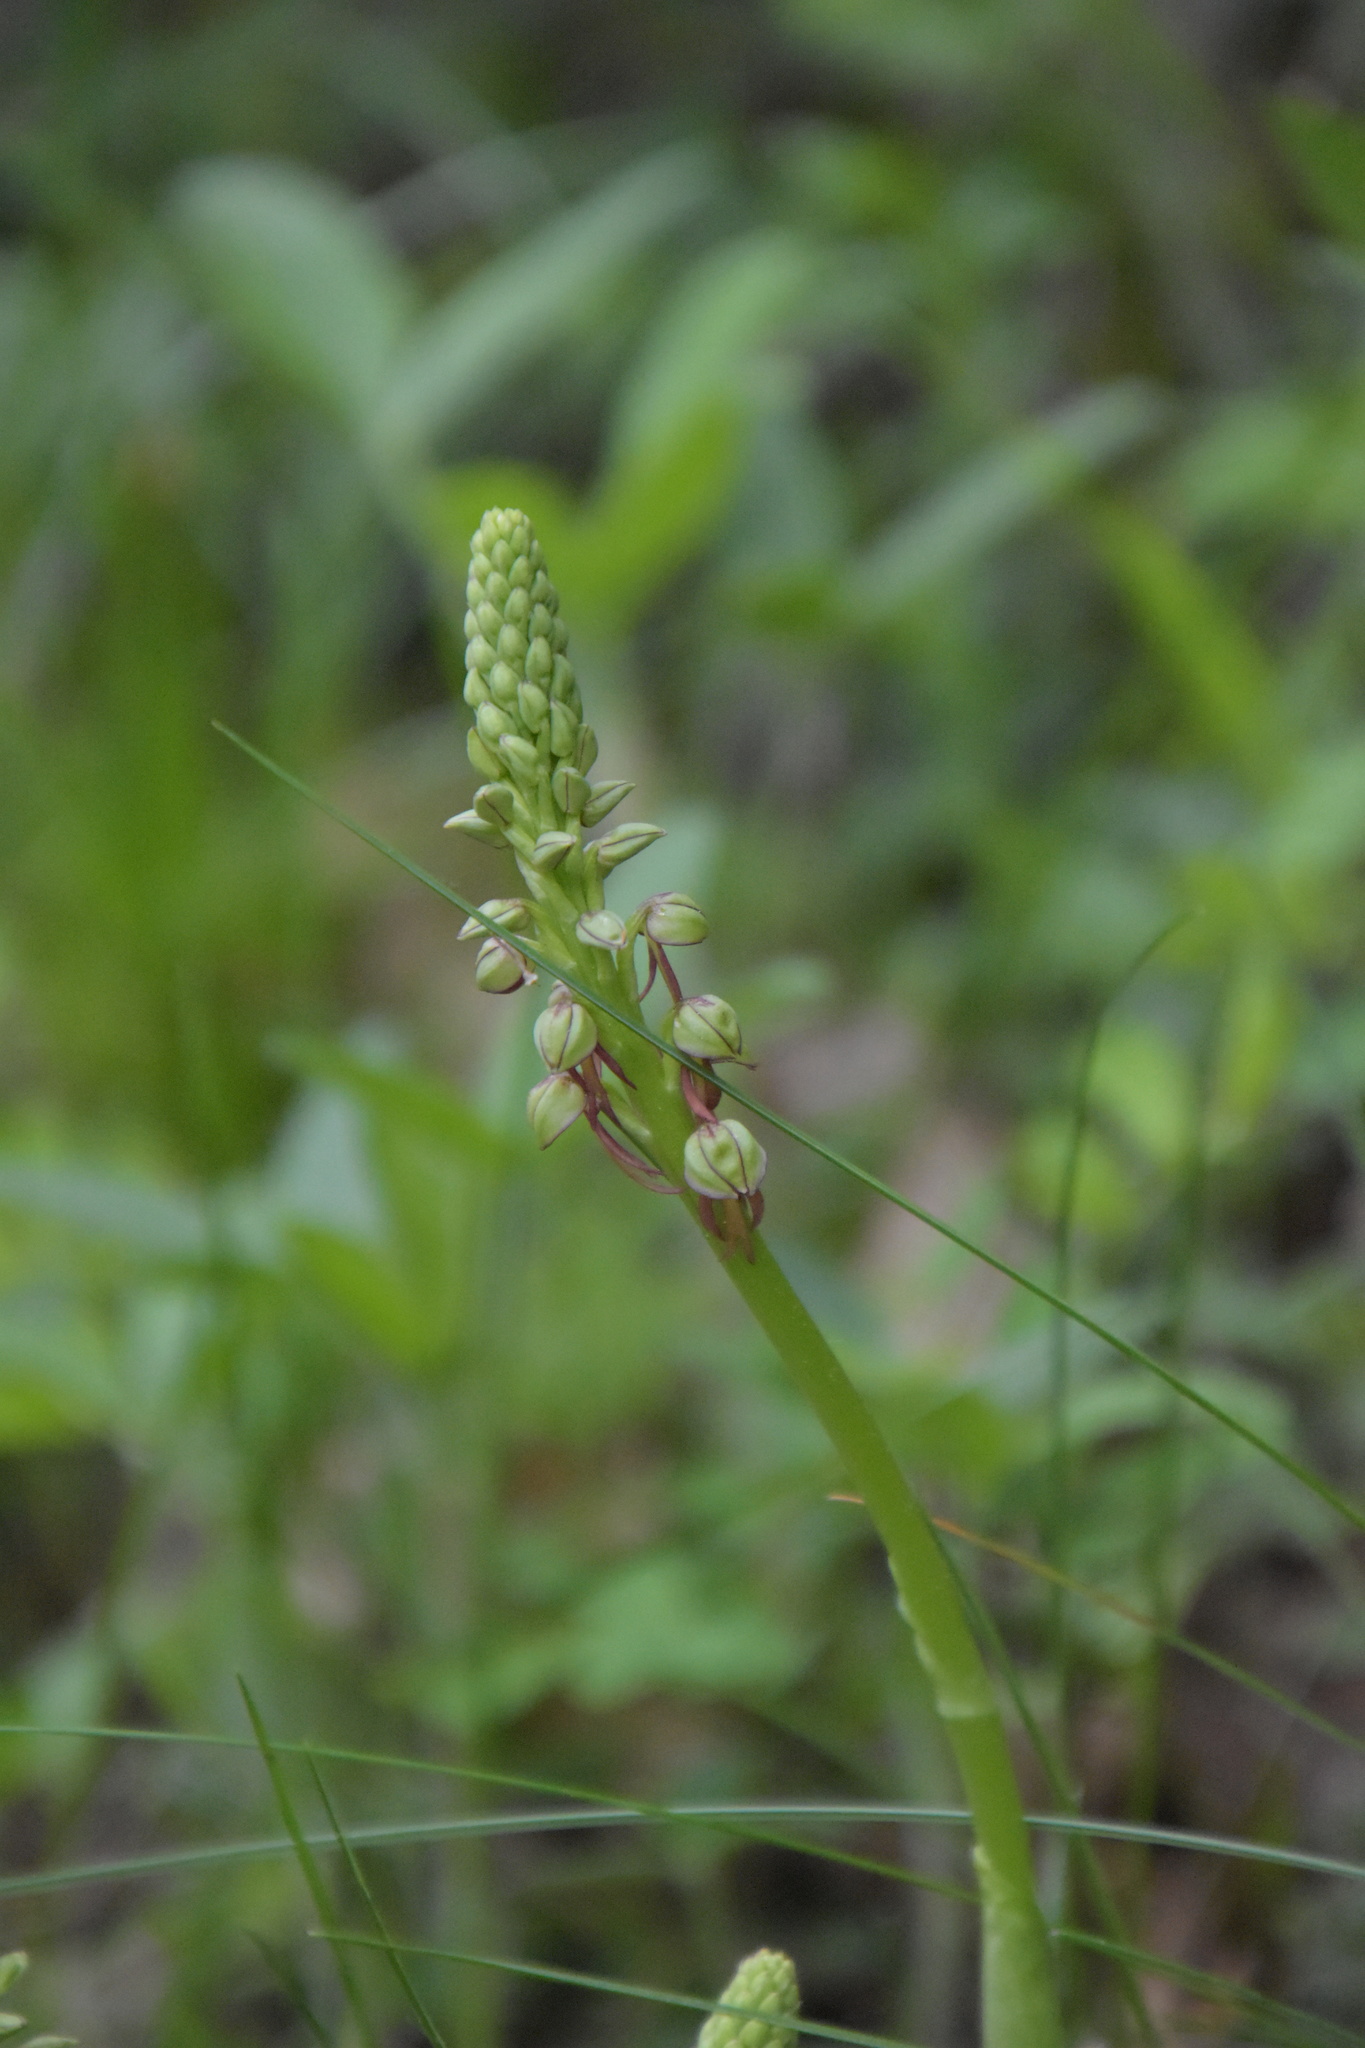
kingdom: Plantae
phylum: Tracheophyta
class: Liliopsida
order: Asparagales
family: Orchidaceae
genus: Orchis
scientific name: Orchis anthropophora
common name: Man orchid
